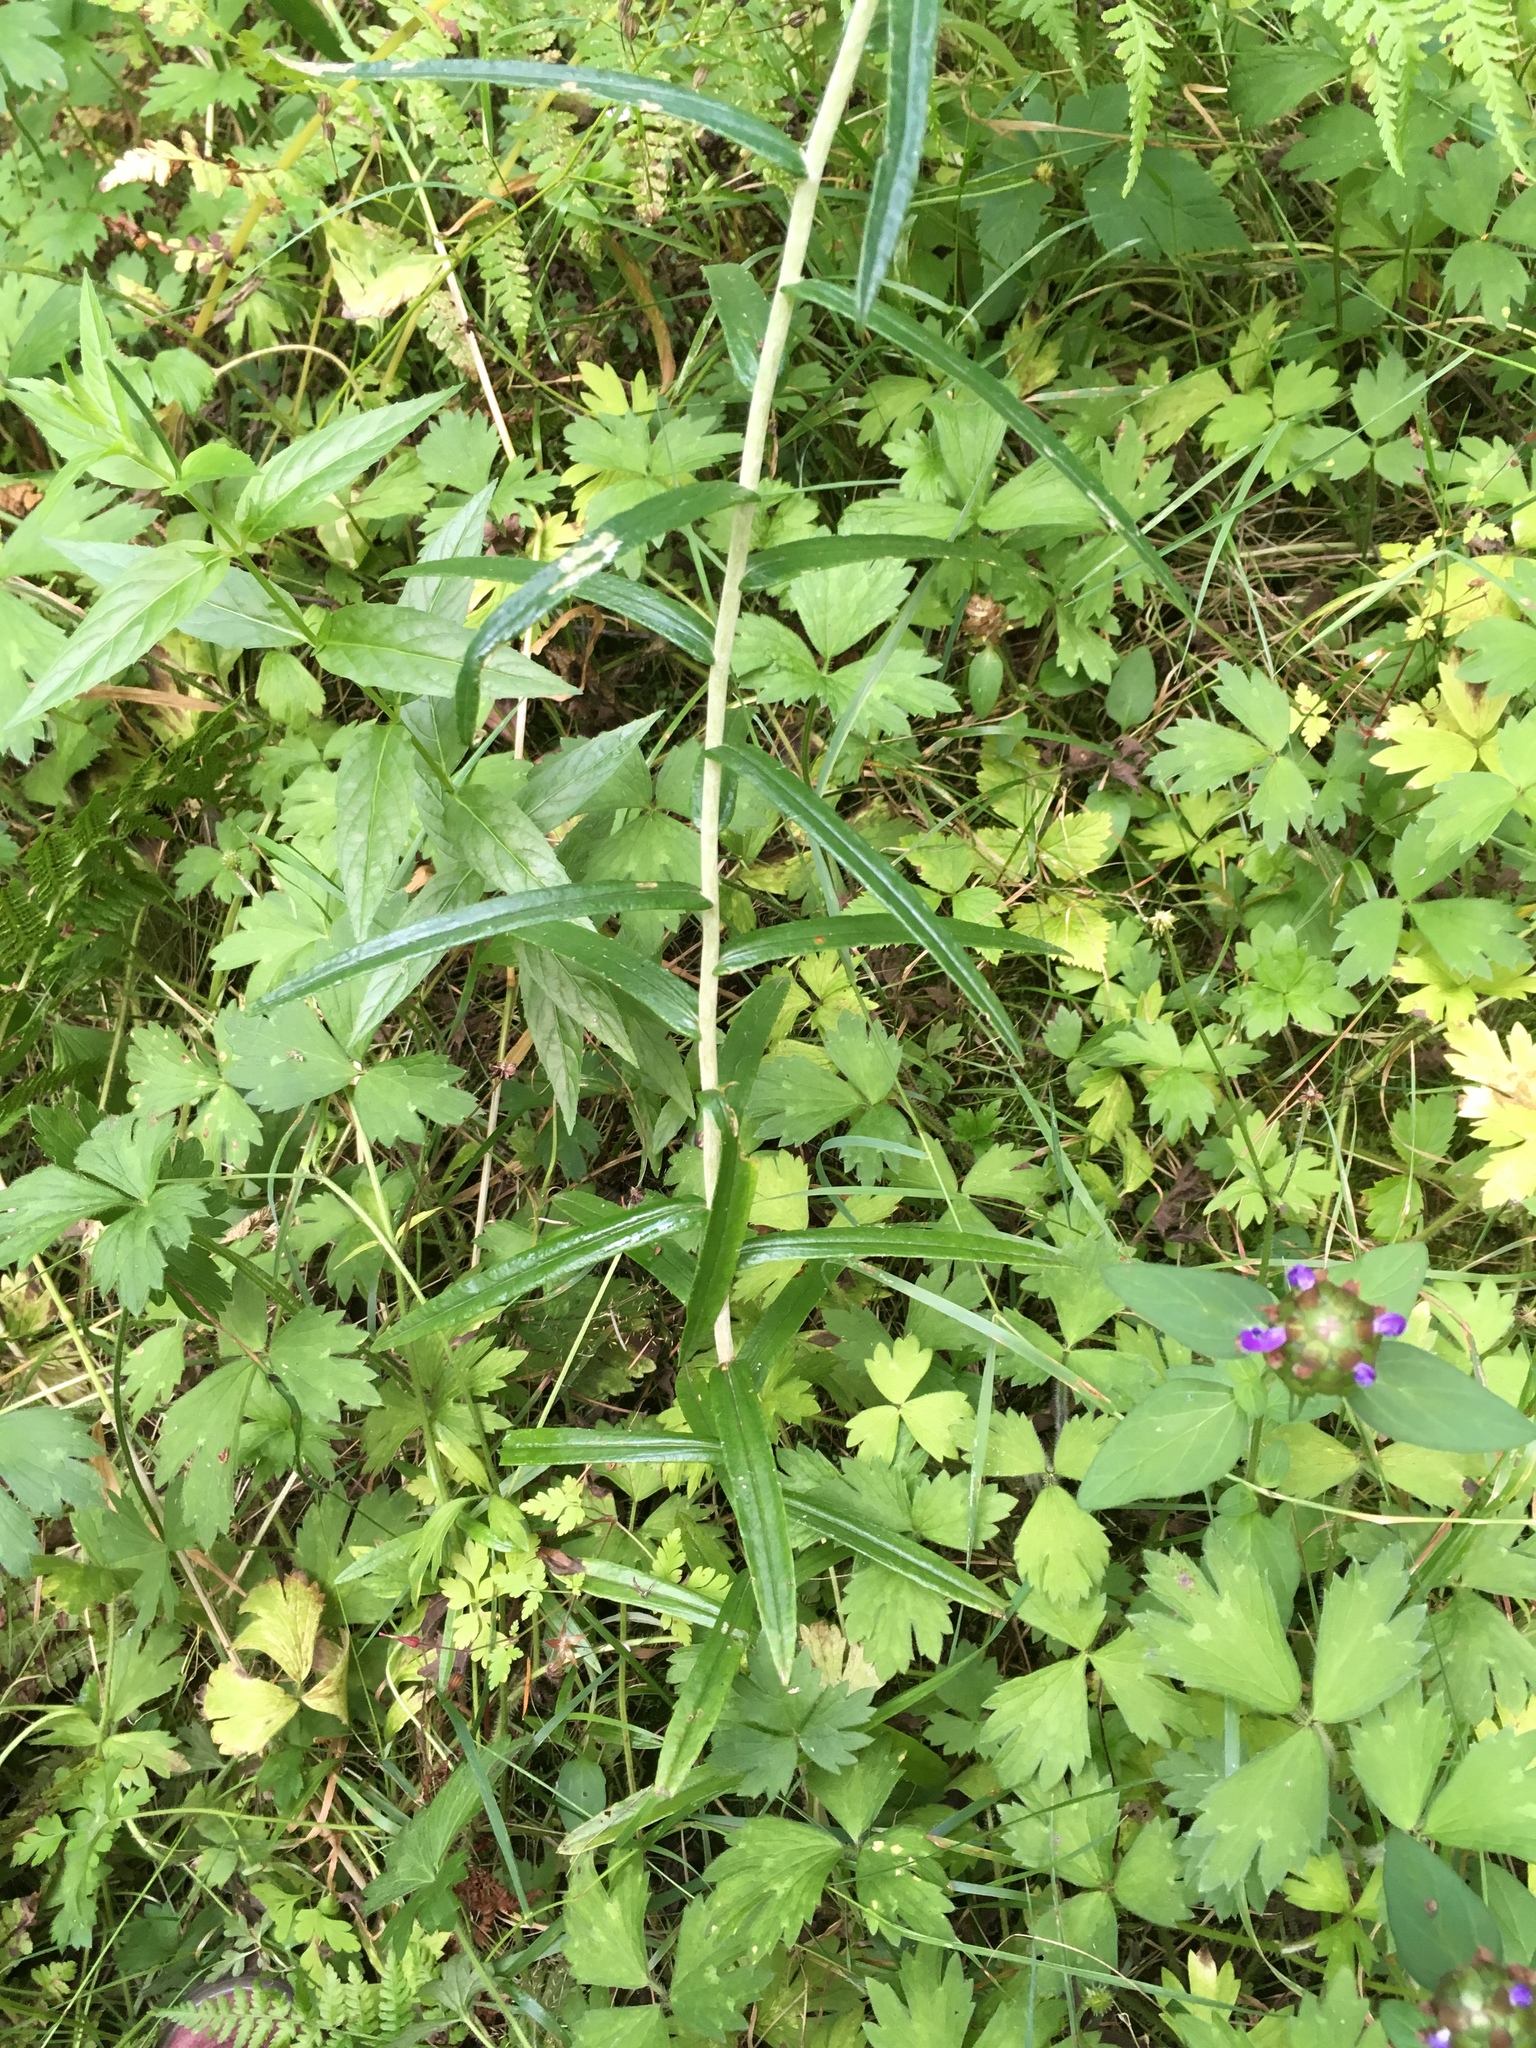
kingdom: Plantae
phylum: Tracheophyta
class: Magnoliopsida
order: Asterales
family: Asteraceae
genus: Anaphalis
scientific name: Anaphalis margaritacea
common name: Pearly everlasting
